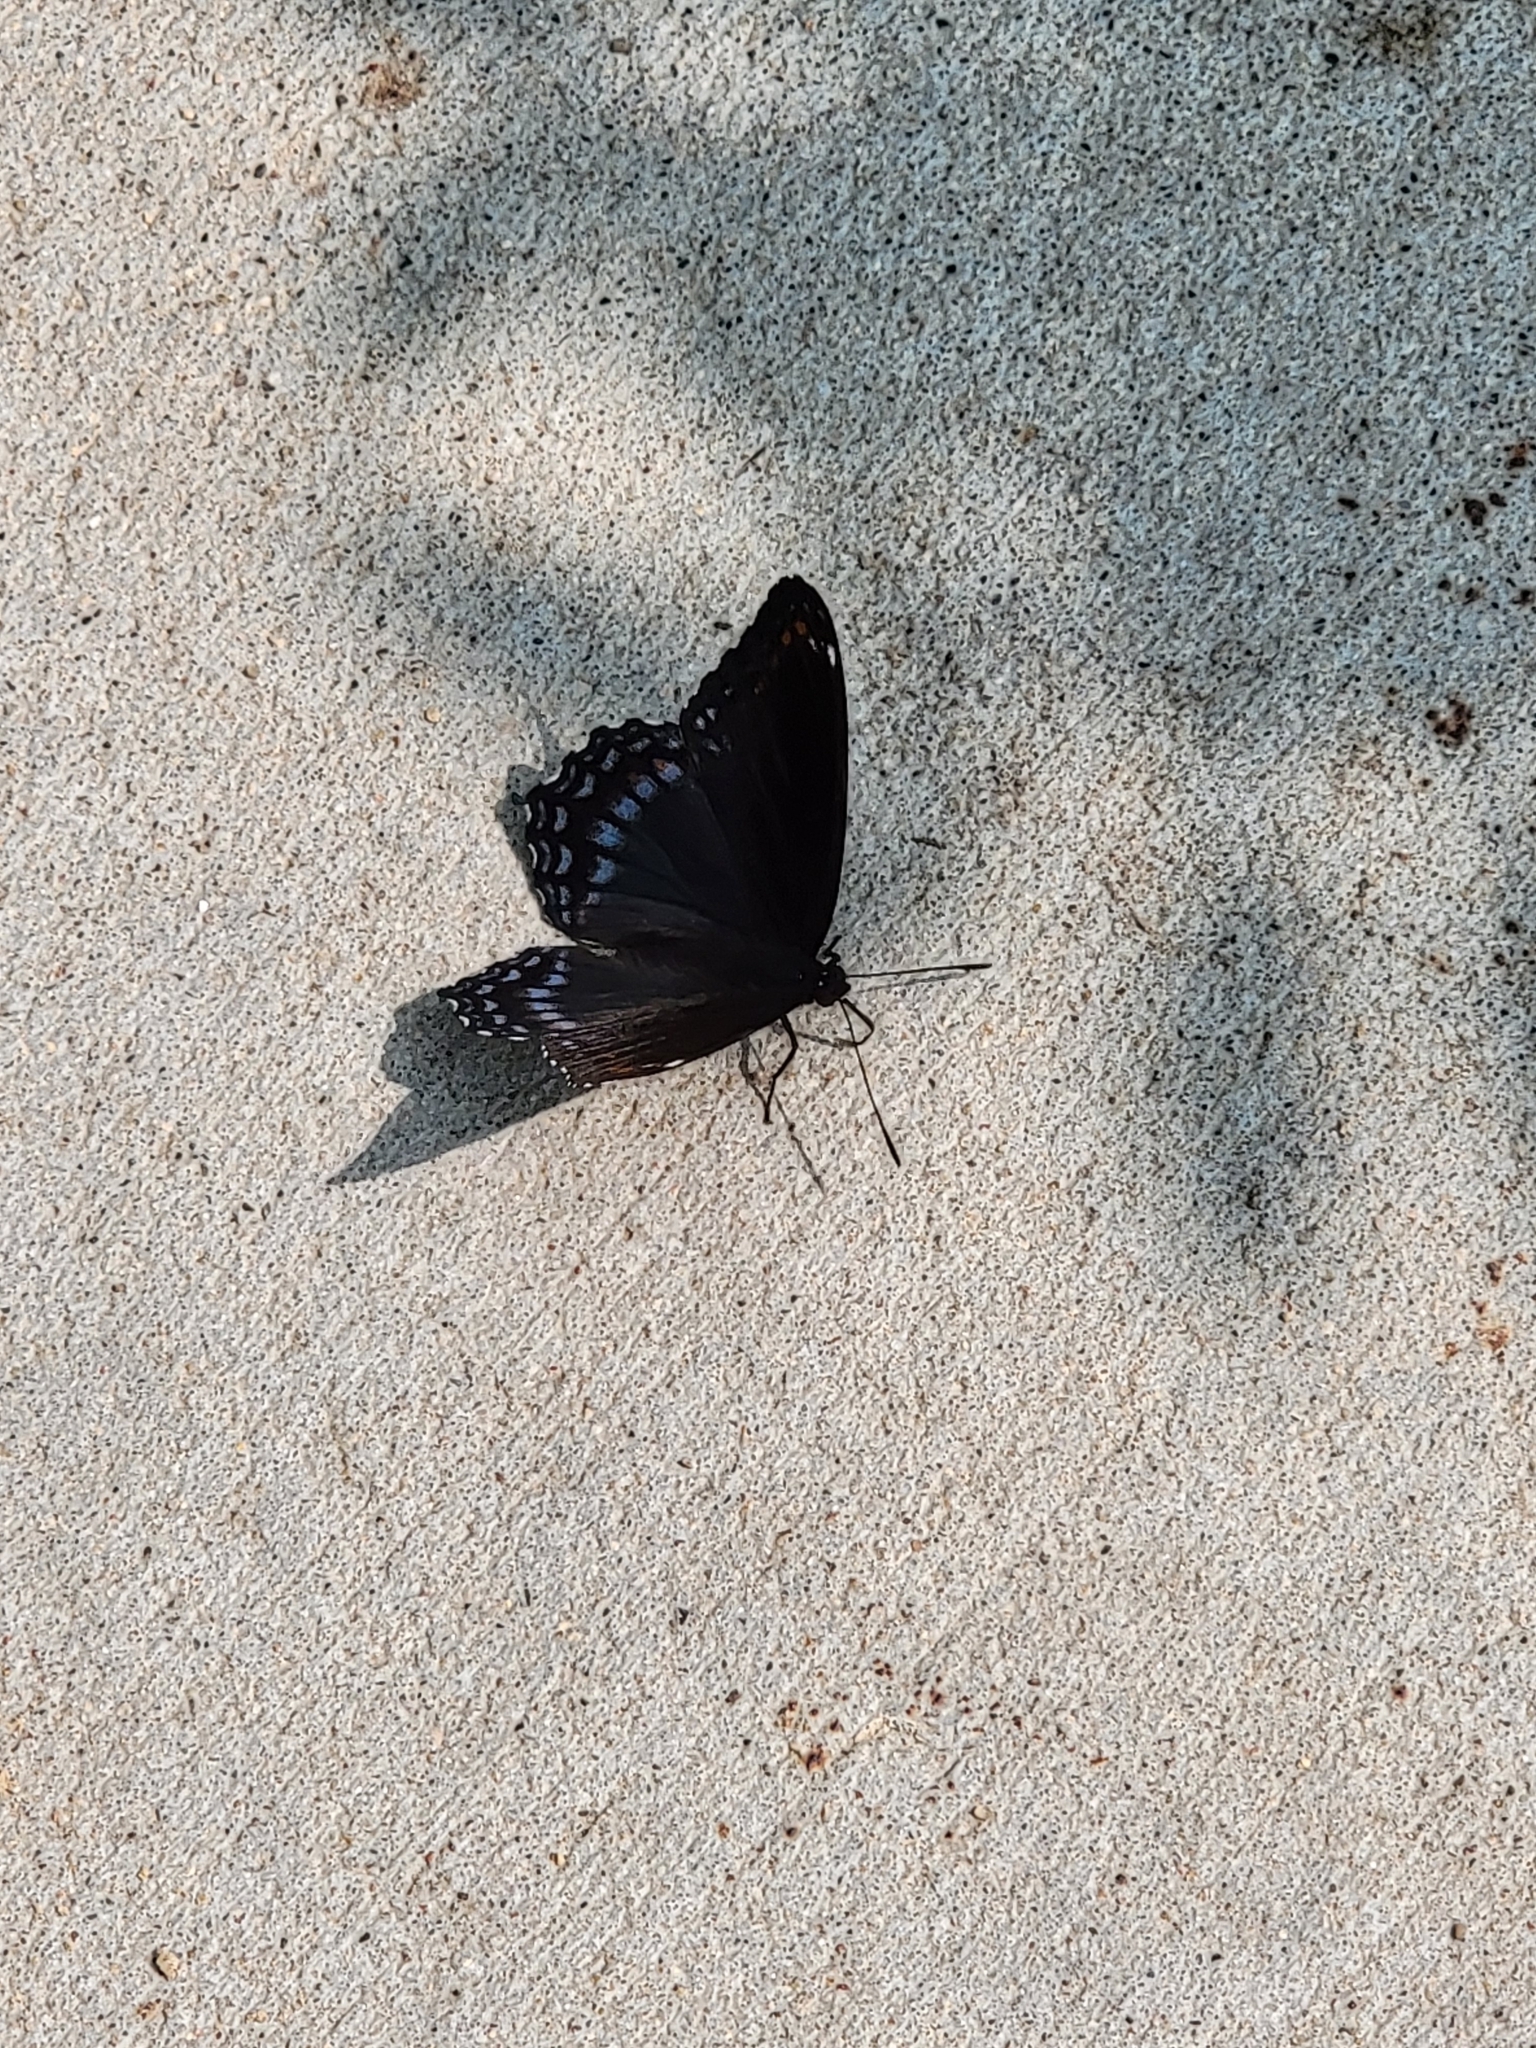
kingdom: Animalia
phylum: Arthropoda
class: Insecta
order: Lepidoptera
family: Nymphalidae
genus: Limenitis
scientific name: Limenitis astyanax
